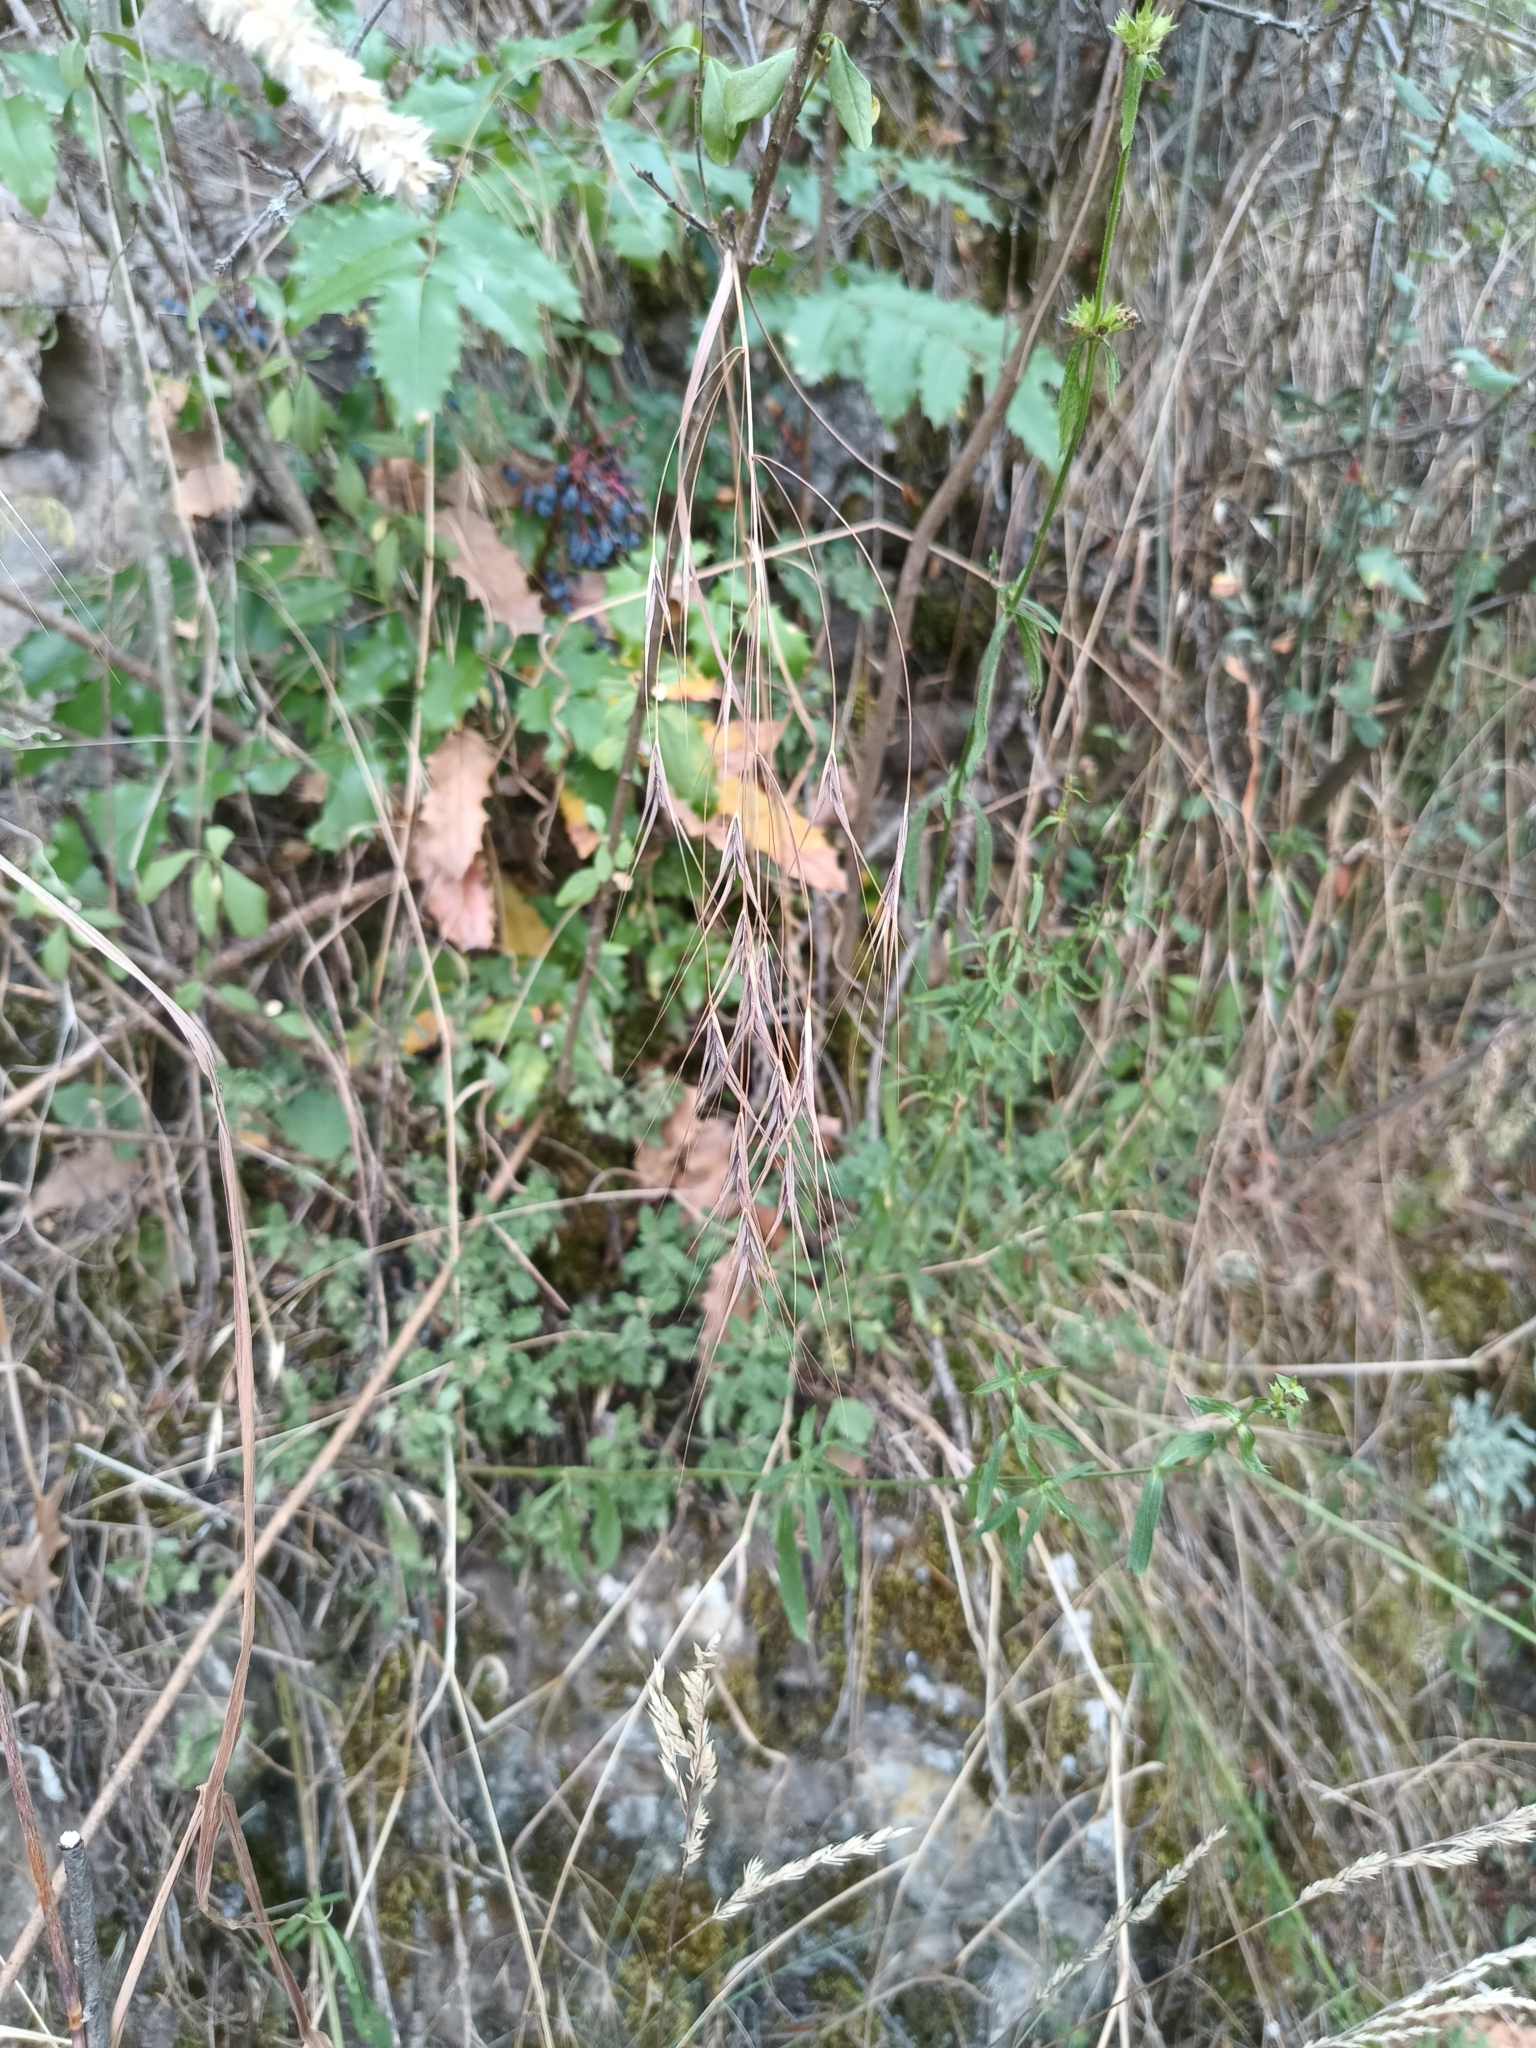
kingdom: Plantae
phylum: Tracheophyta
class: Liliopsida
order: Poales
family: Poaceae
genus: Bromus
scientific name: Bromus sterilis
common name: Poverty brome
